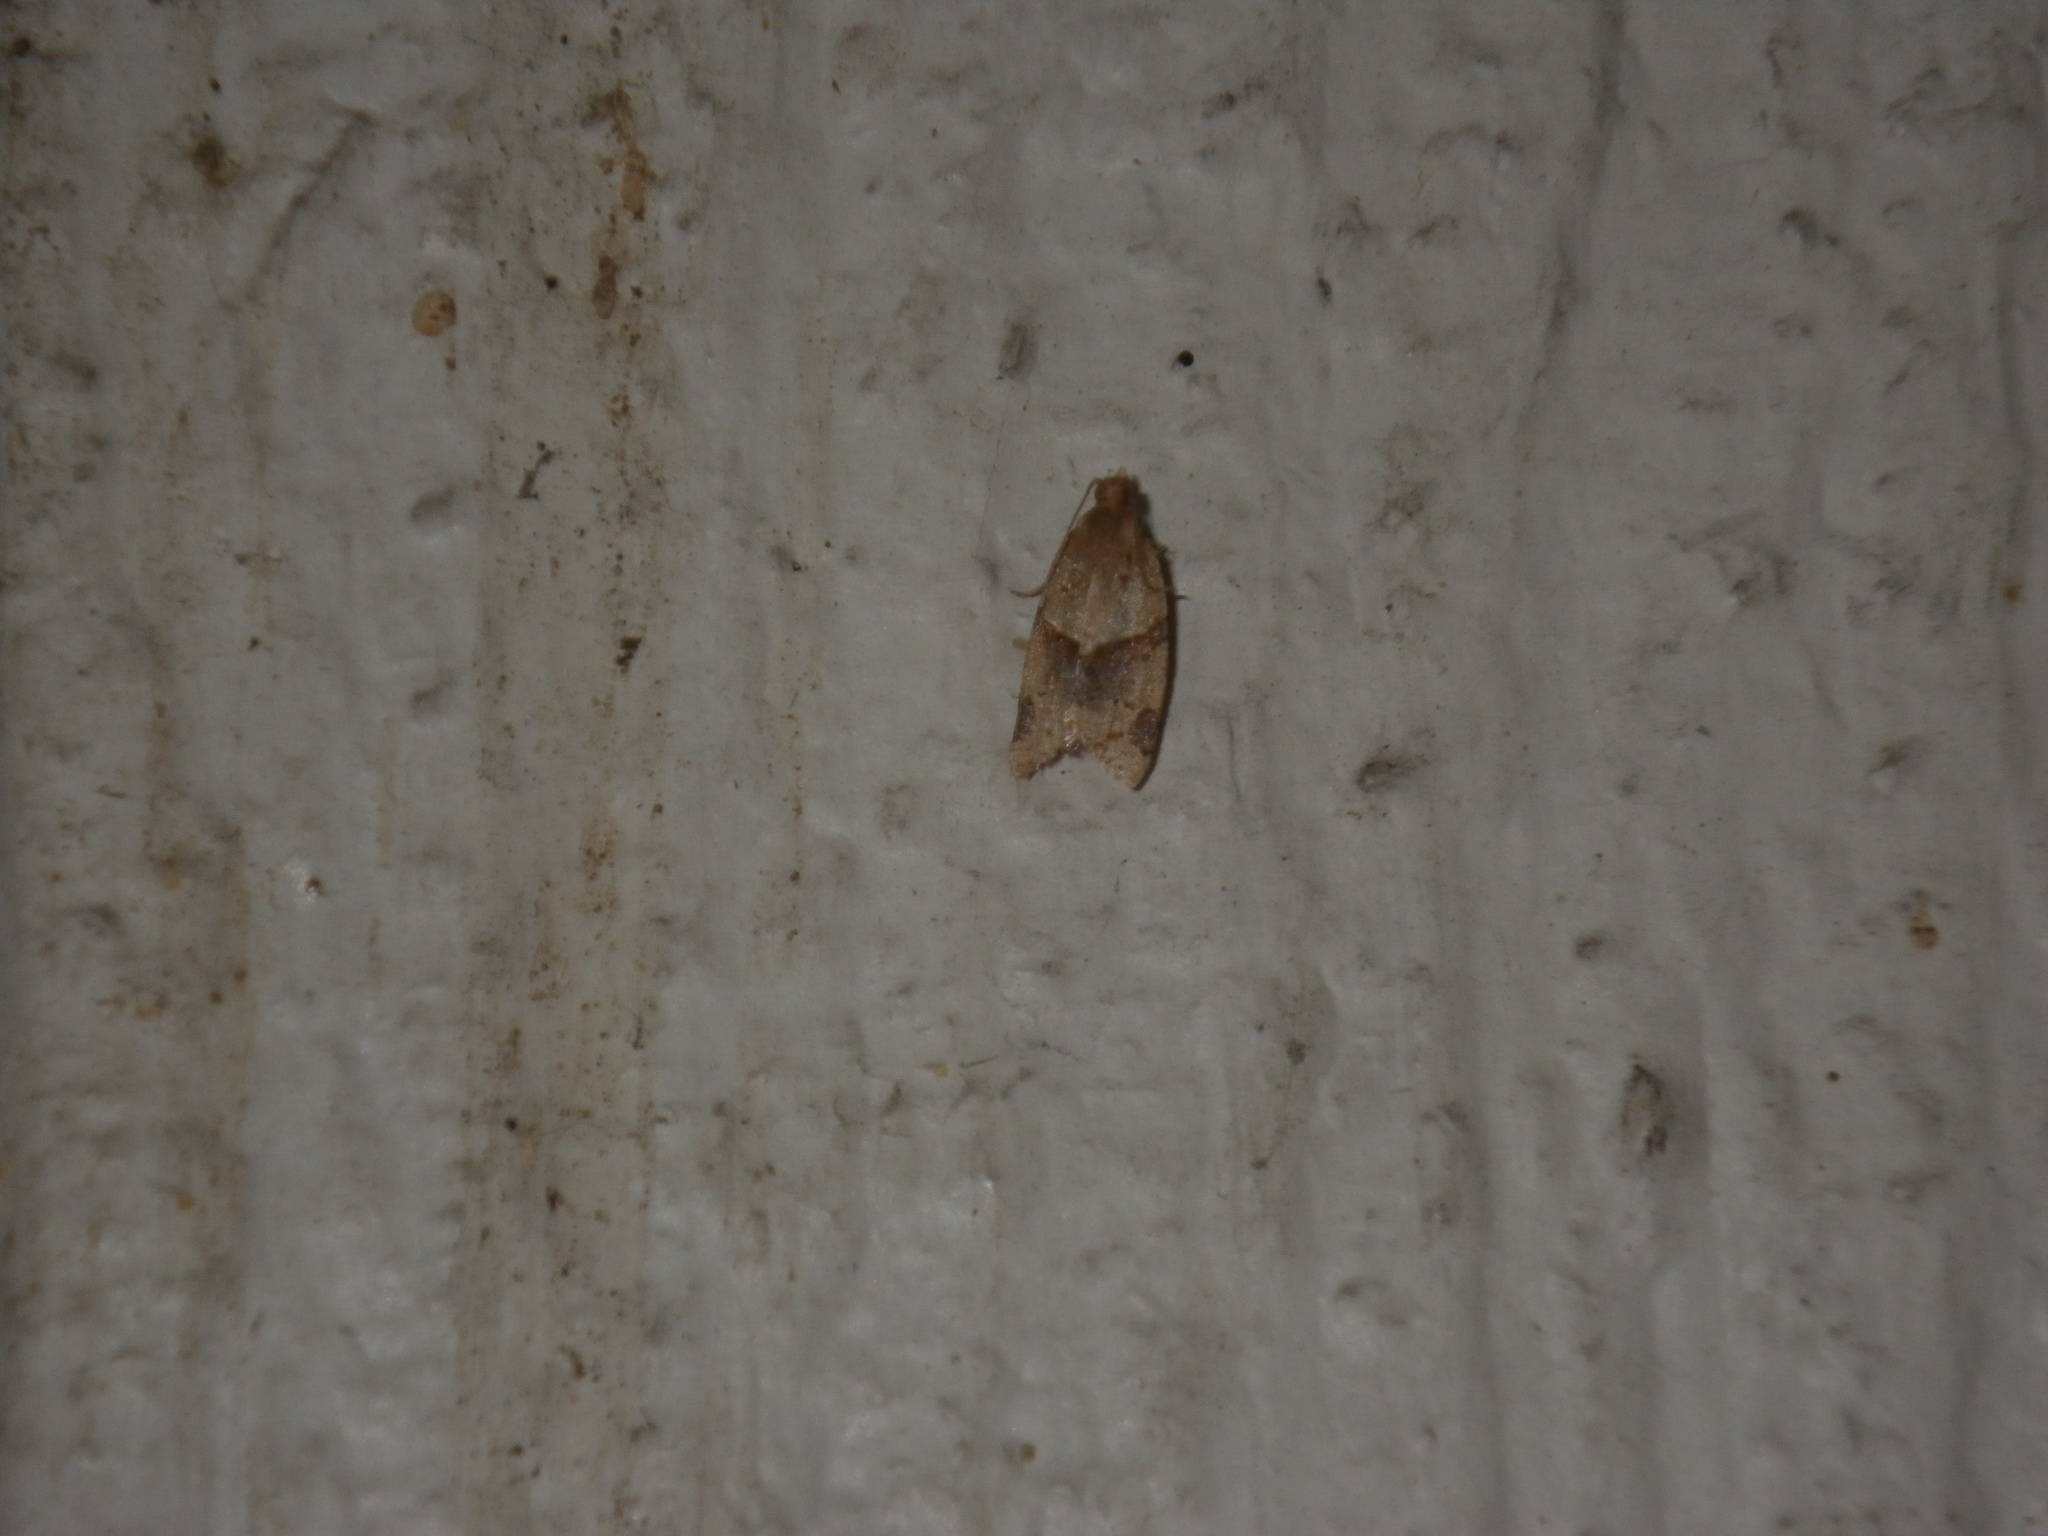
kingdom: Animalia
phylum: Arthropoda
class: Insecta
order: Lepidoptera
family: Tortricidae
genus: Clepsis
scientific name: Clepsis peritana
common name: Garden tortrix
